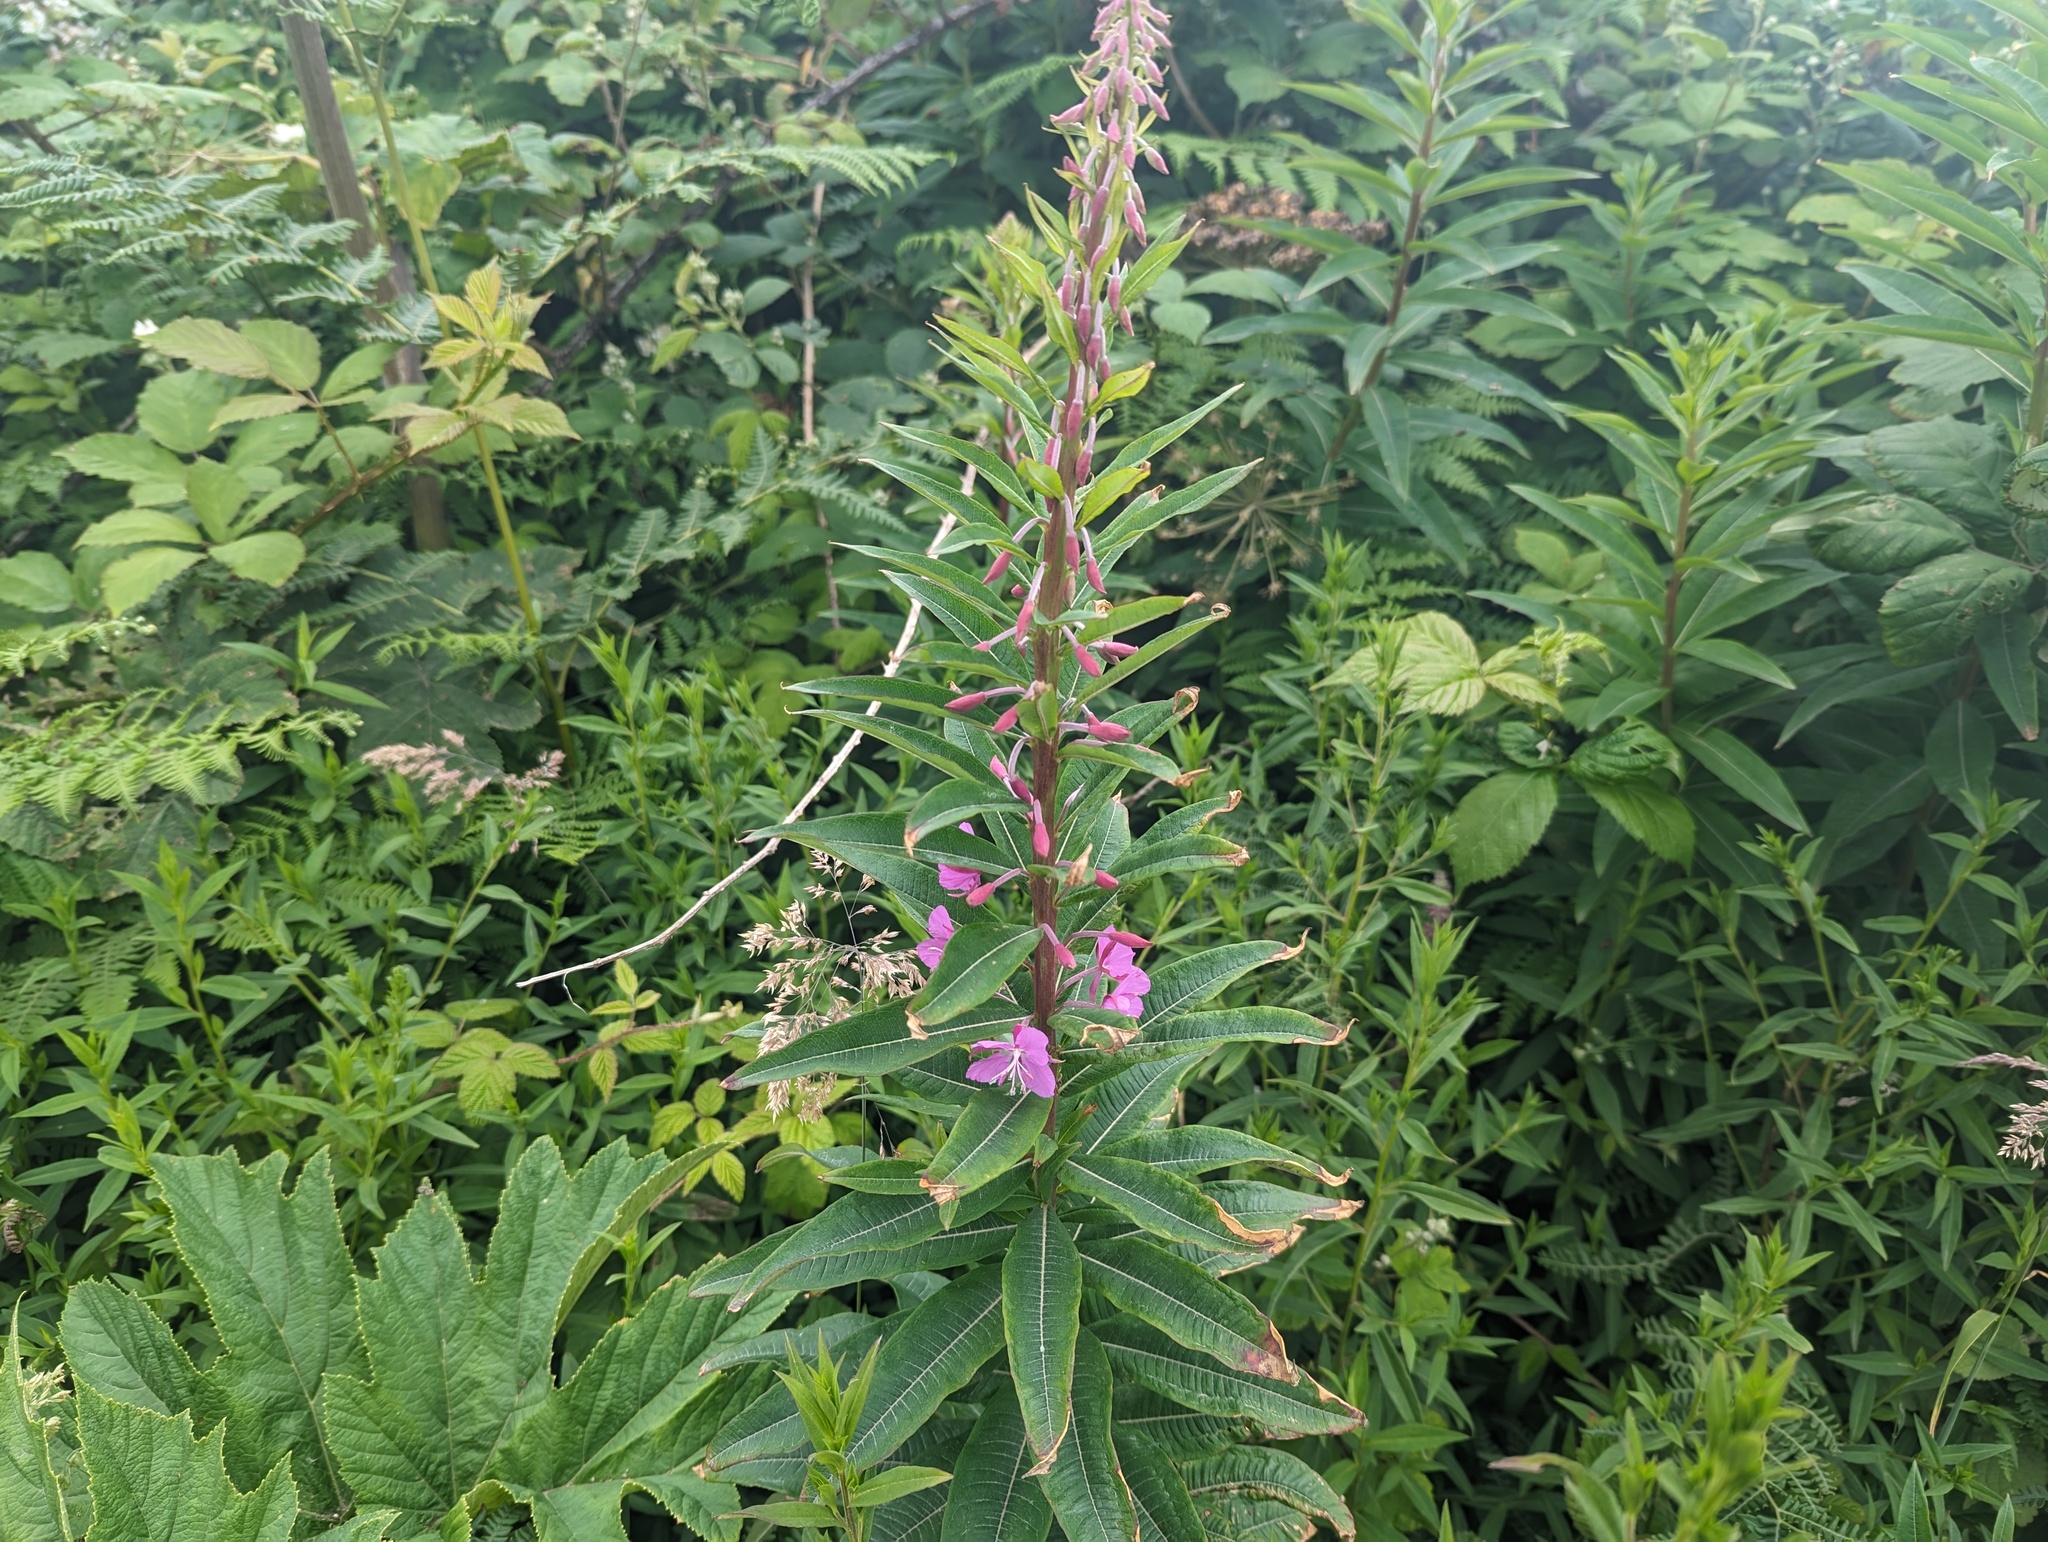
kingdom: Plantae
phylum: Tracheophyta
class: Magnoliopsida
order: Myrtales
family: Onagraceae
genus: Chamaenerion
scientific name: Chamaenerion angustifolium
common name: Fireweed
